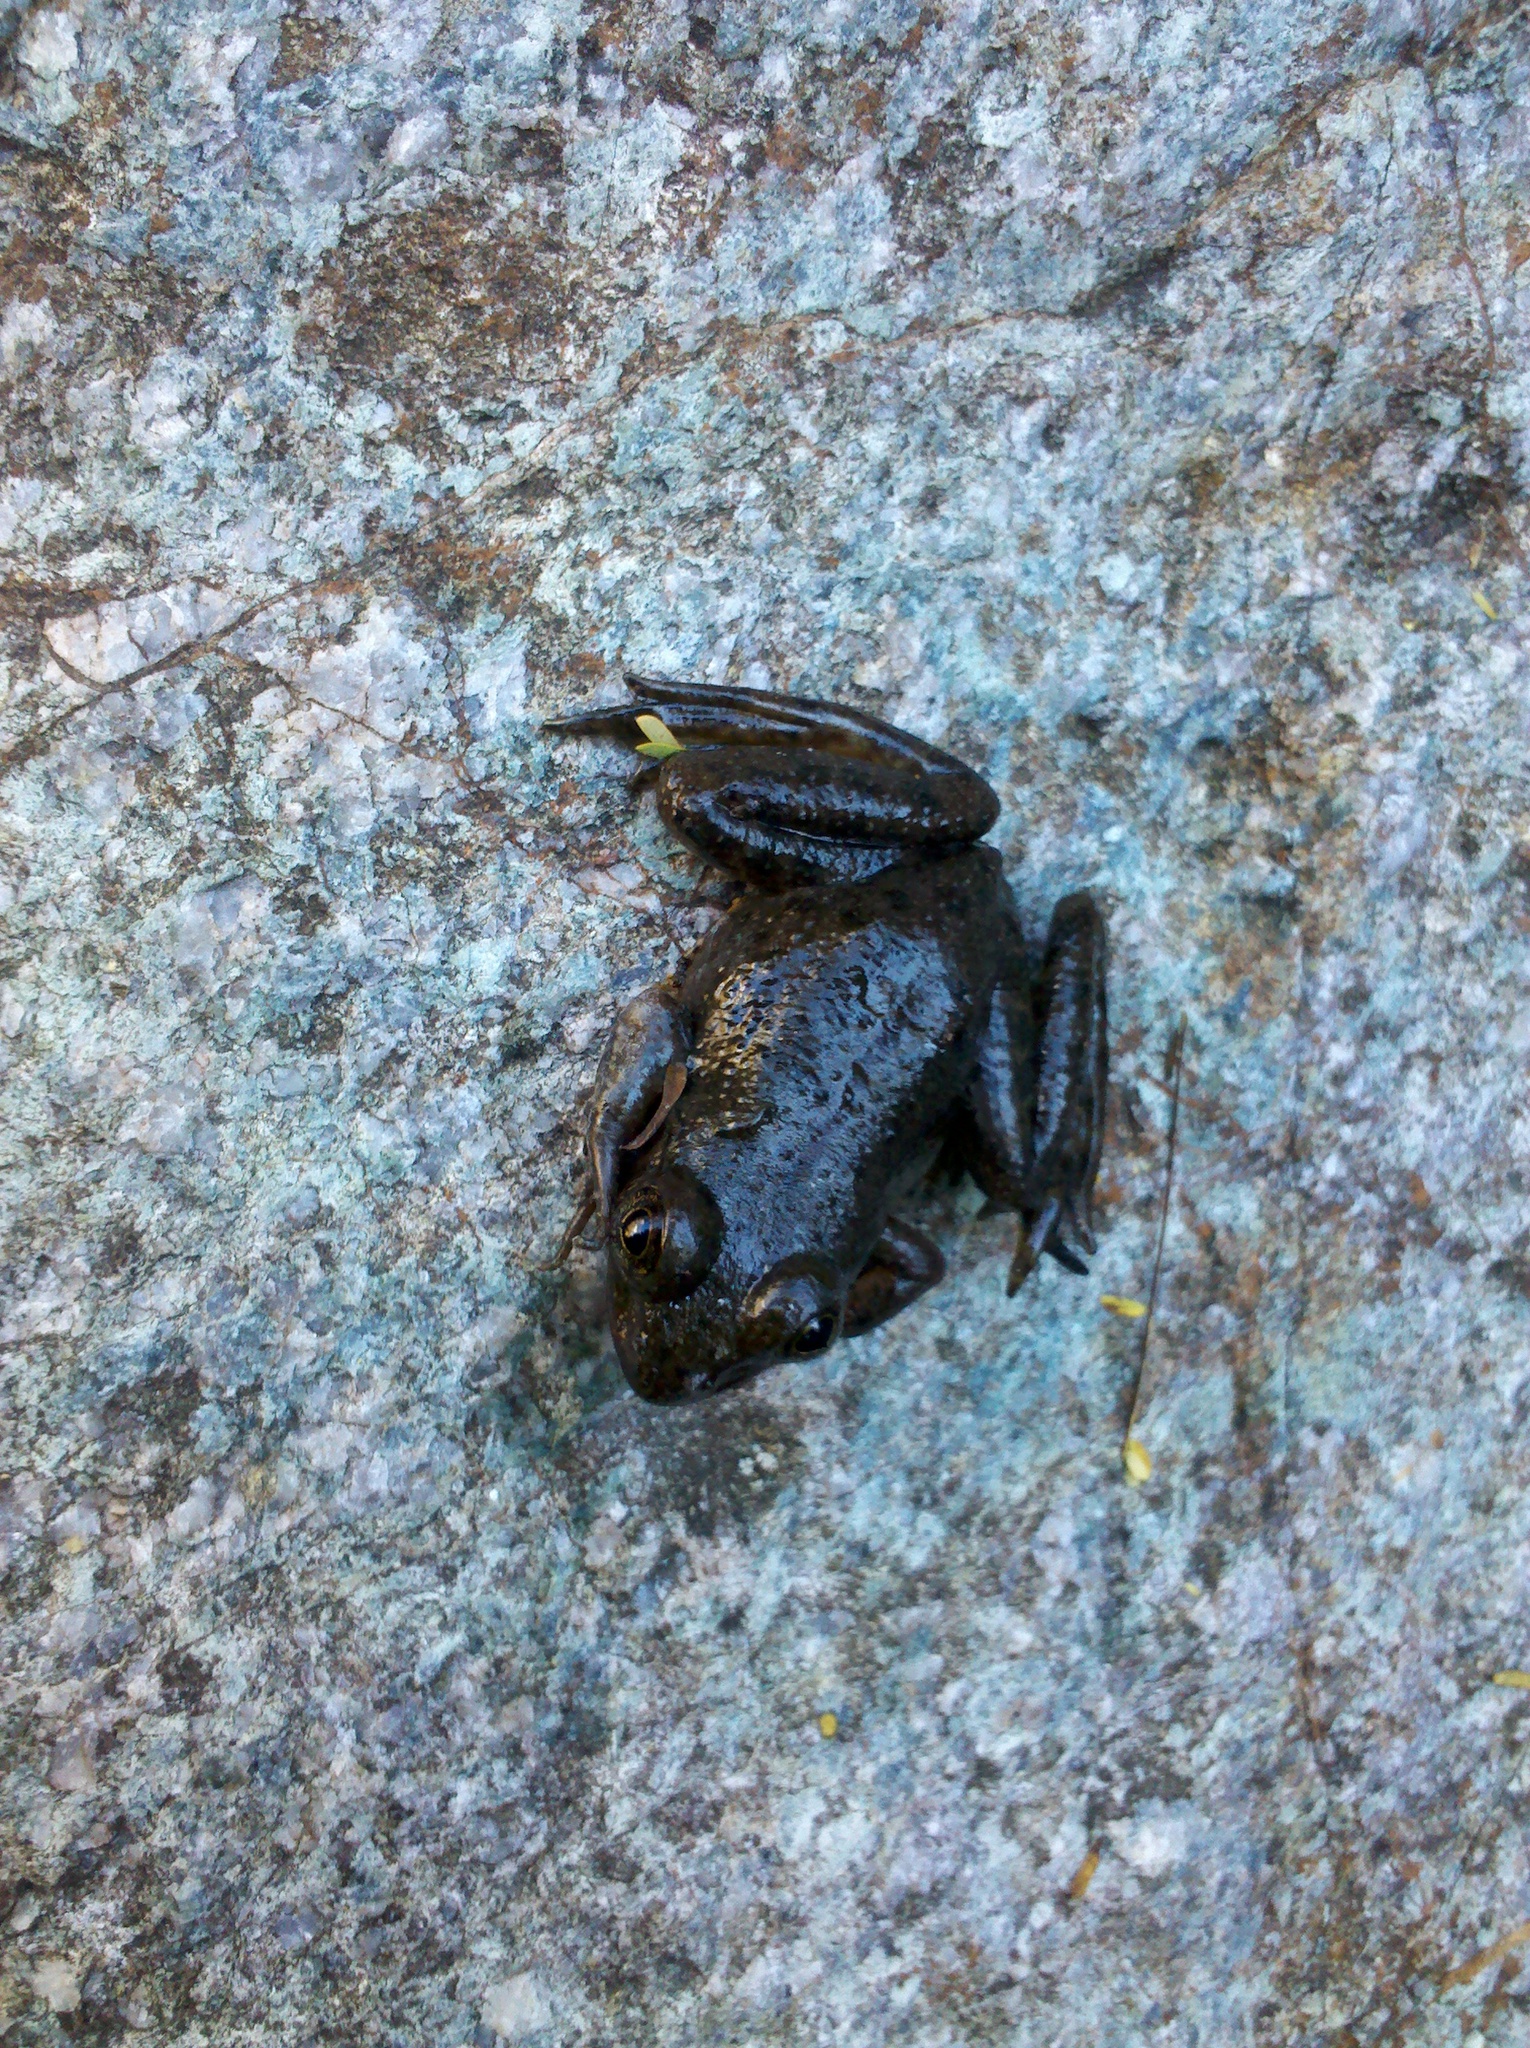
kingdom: Animalia
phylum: Chordata
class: Amphibia
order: Anura
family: Ranidae
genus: Lithobates
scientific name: Lithobates zweifeli
